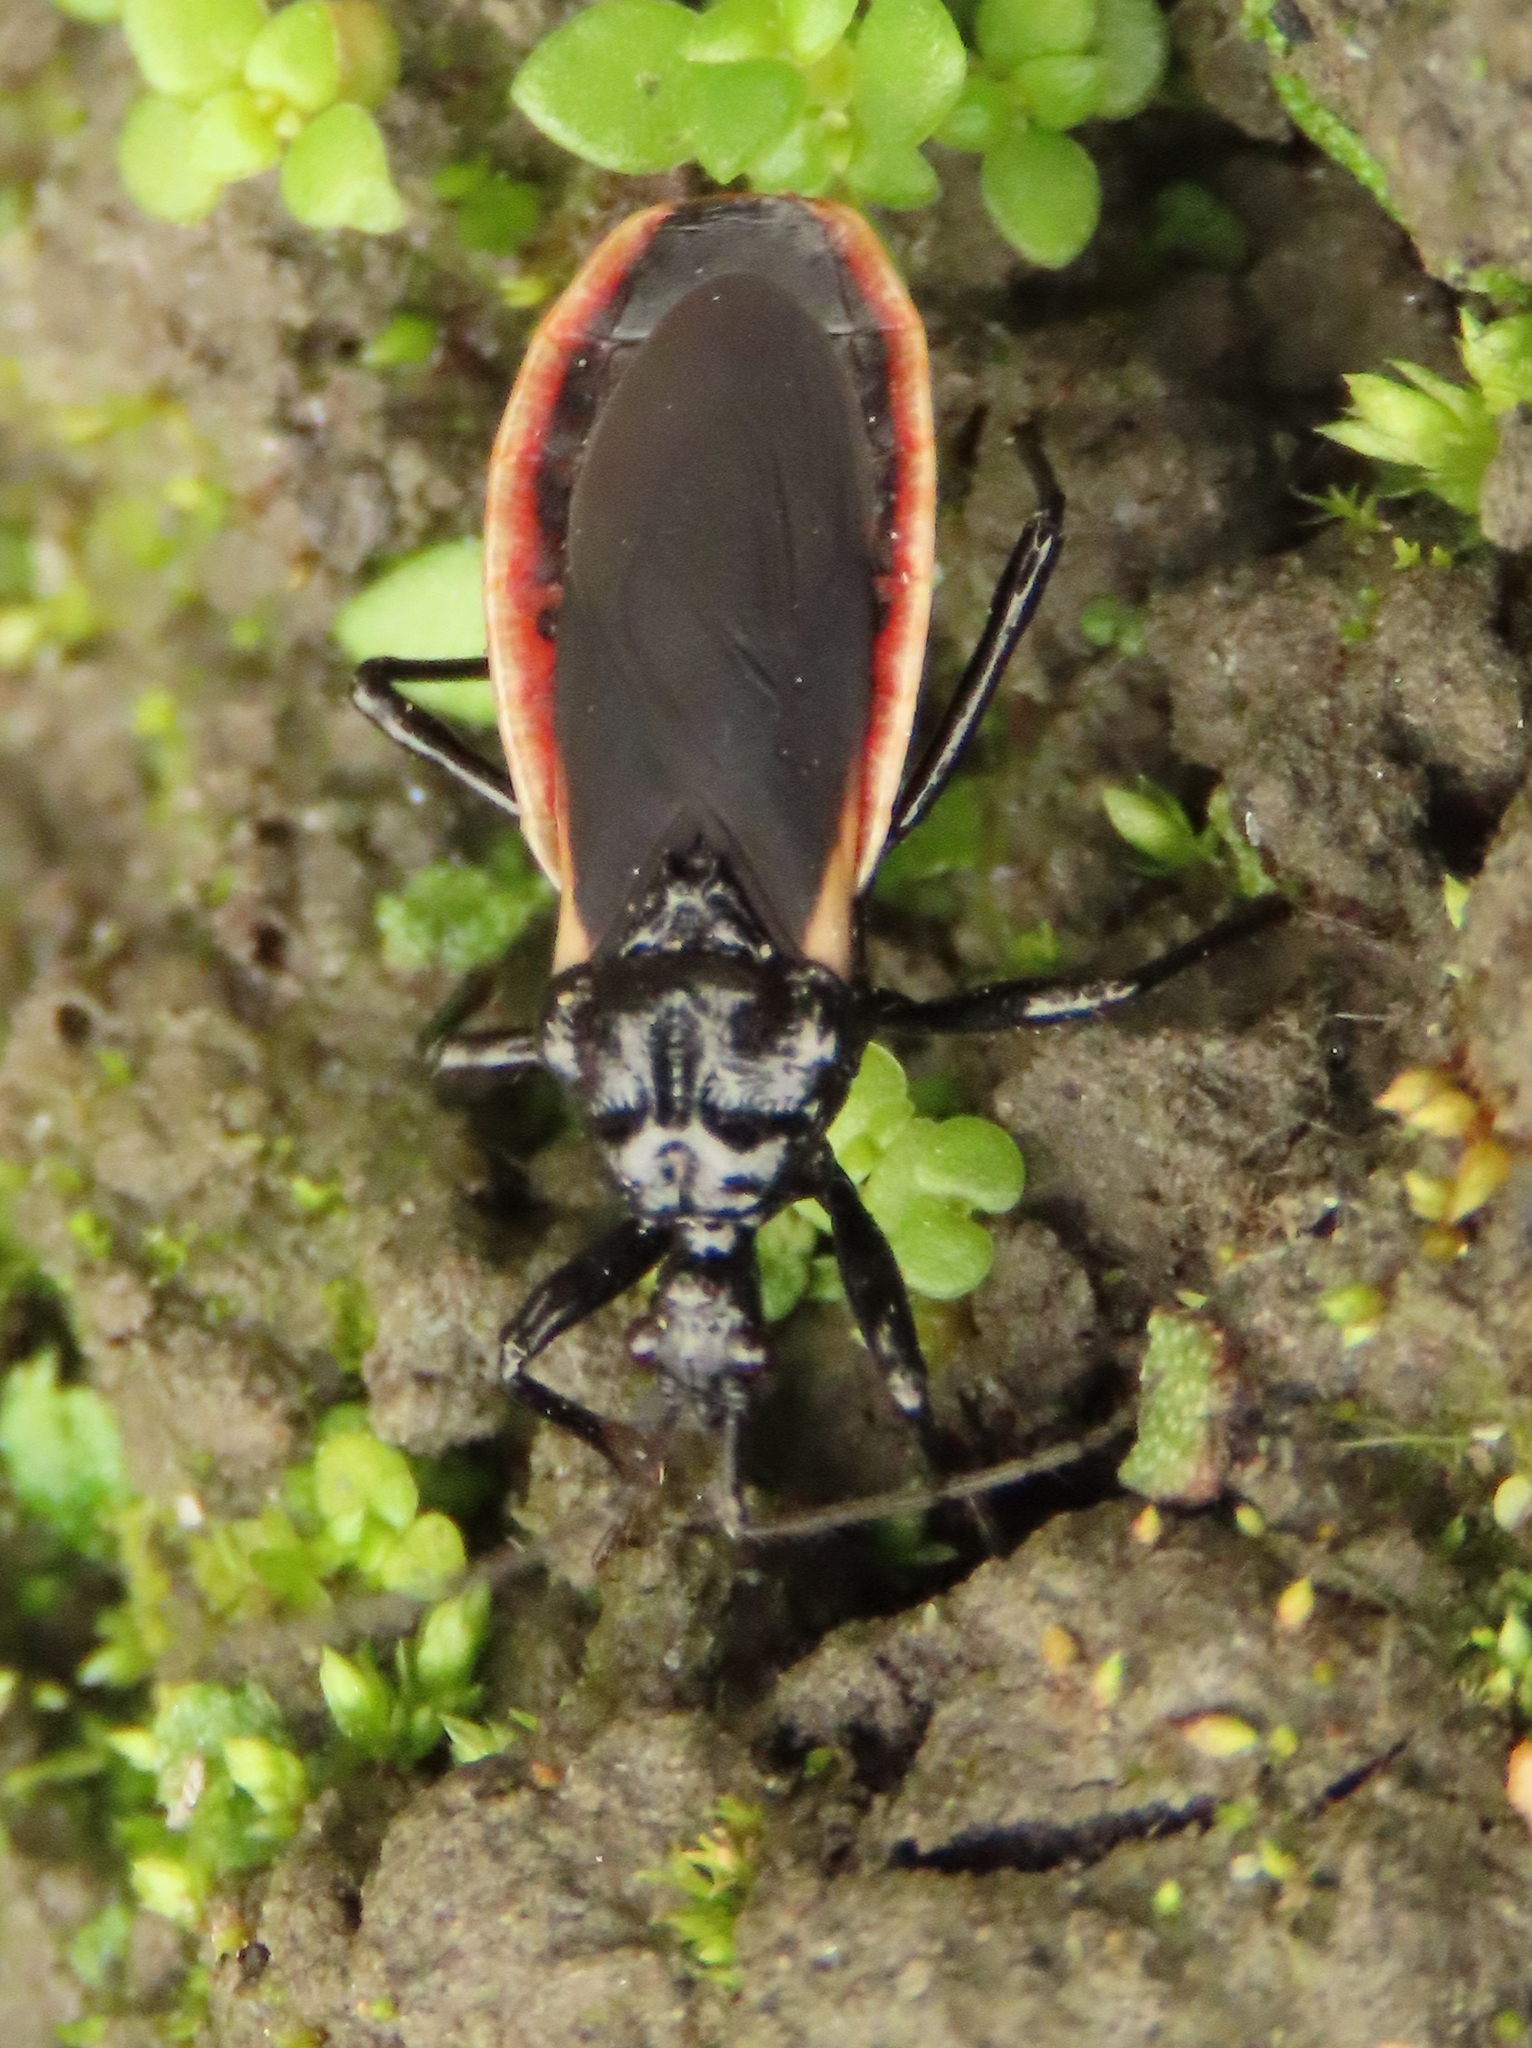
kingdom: Animalia
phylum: Arthropoda
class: Insecta
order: Hemiptera
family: Reduviidae
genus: Scadra
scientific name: Scadra okinawensis
